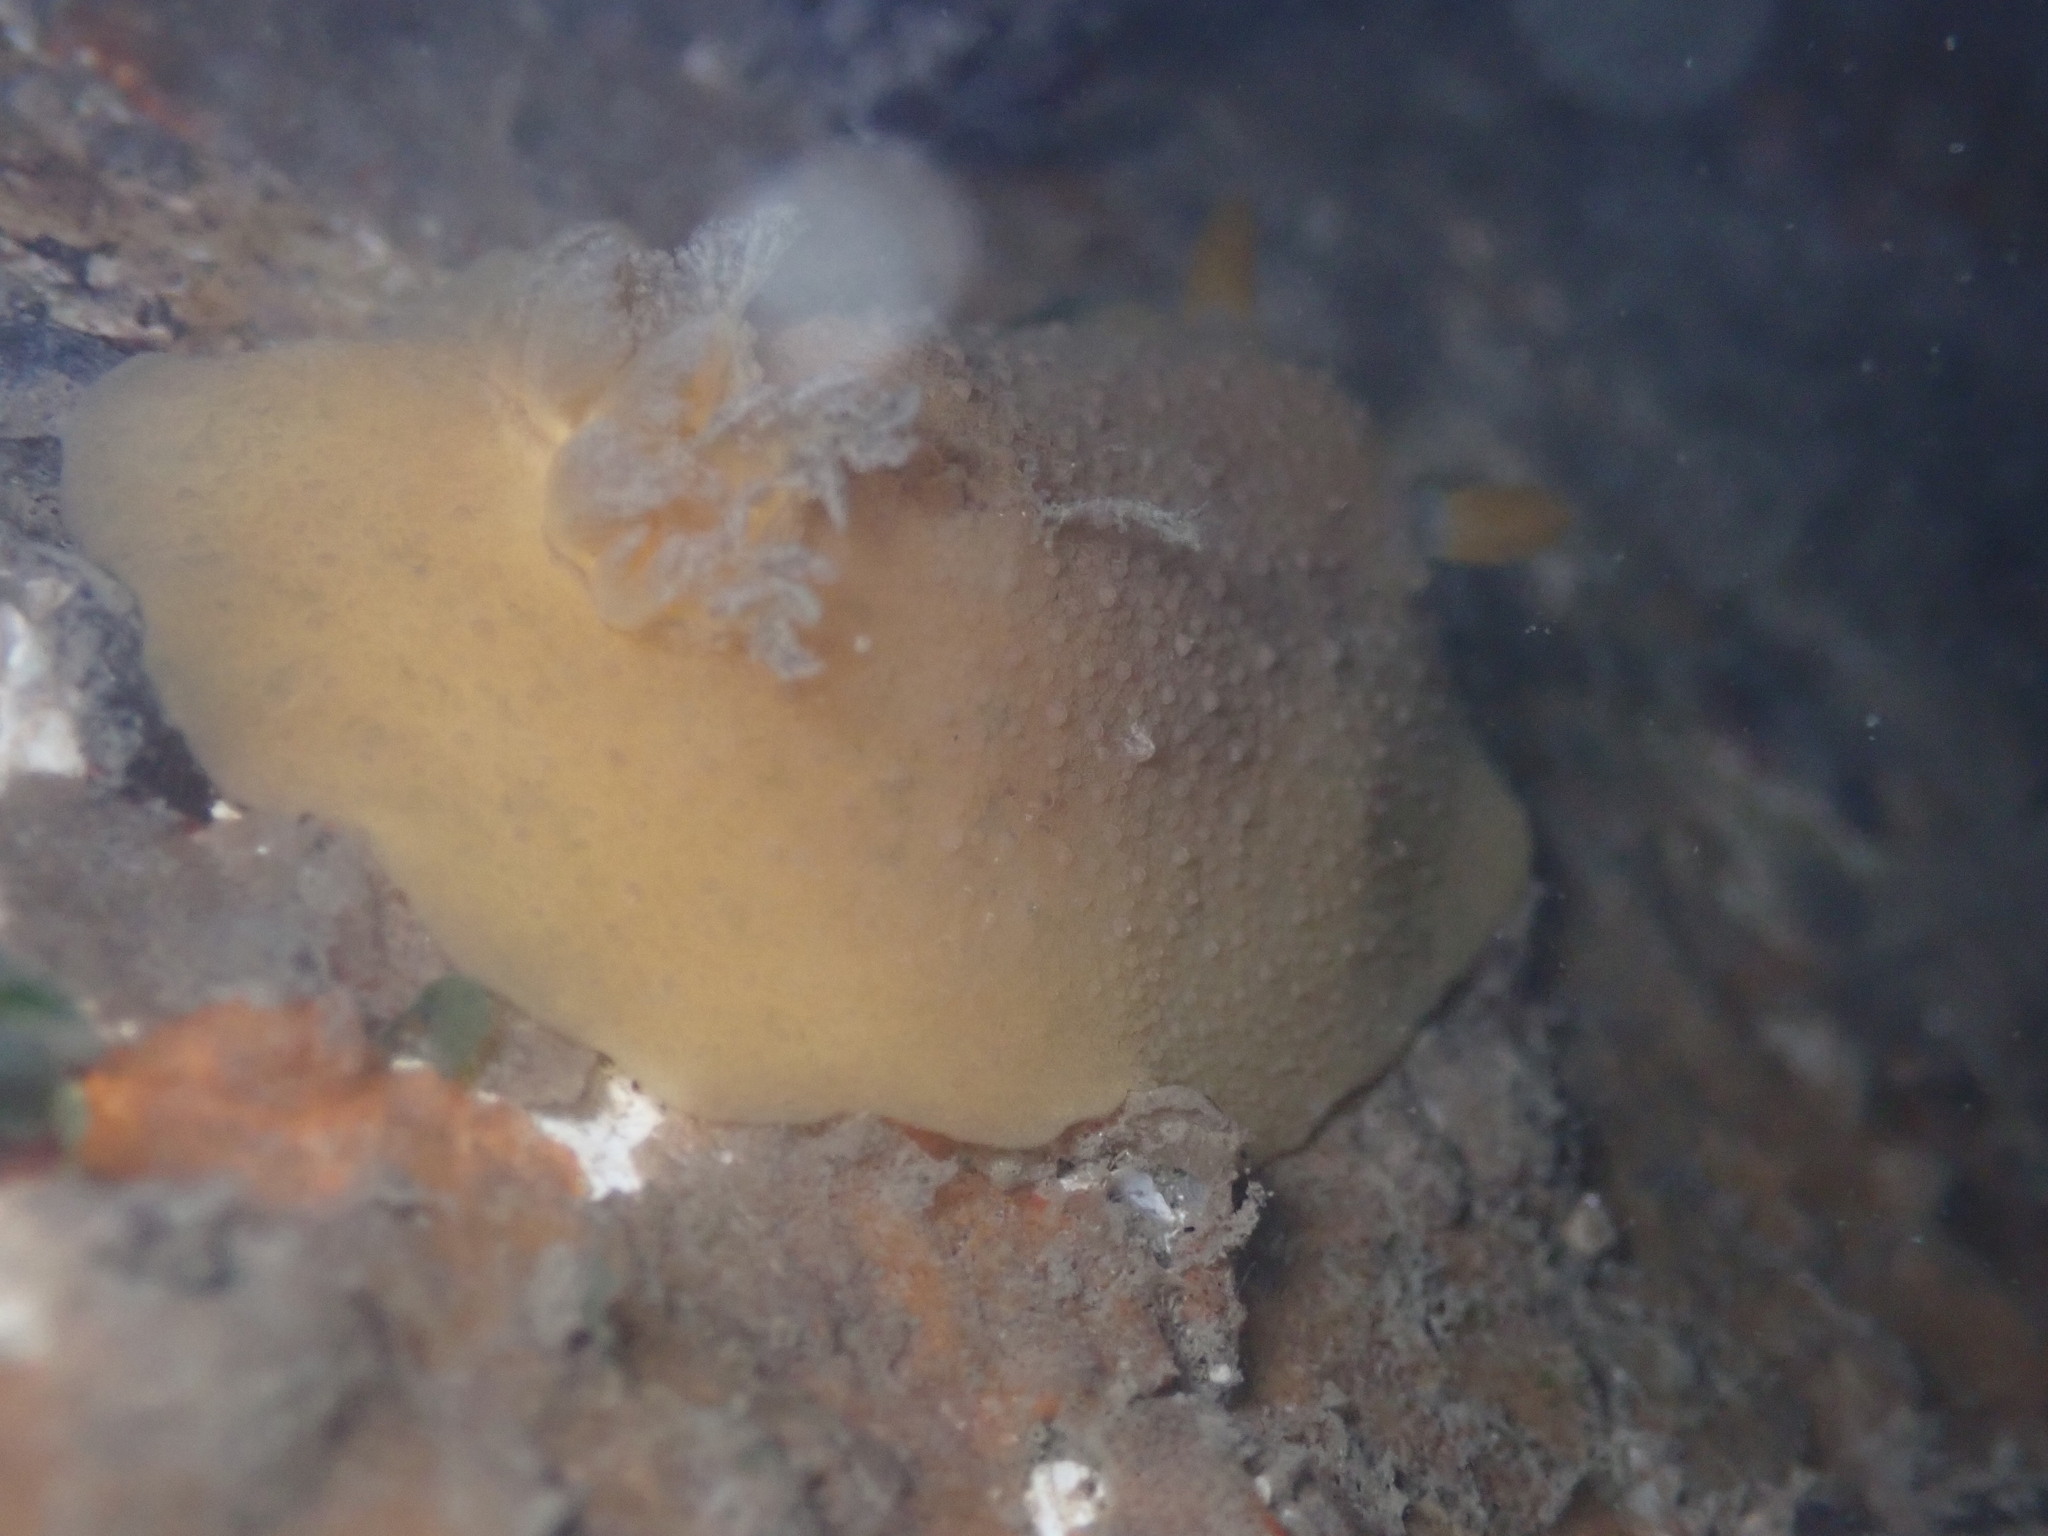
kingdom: Animalia
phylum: Mollusca
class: Gastropoda
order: Nudibranchia
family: Discodorididae
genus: Geitodoris
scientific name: Geitodoris heathi
